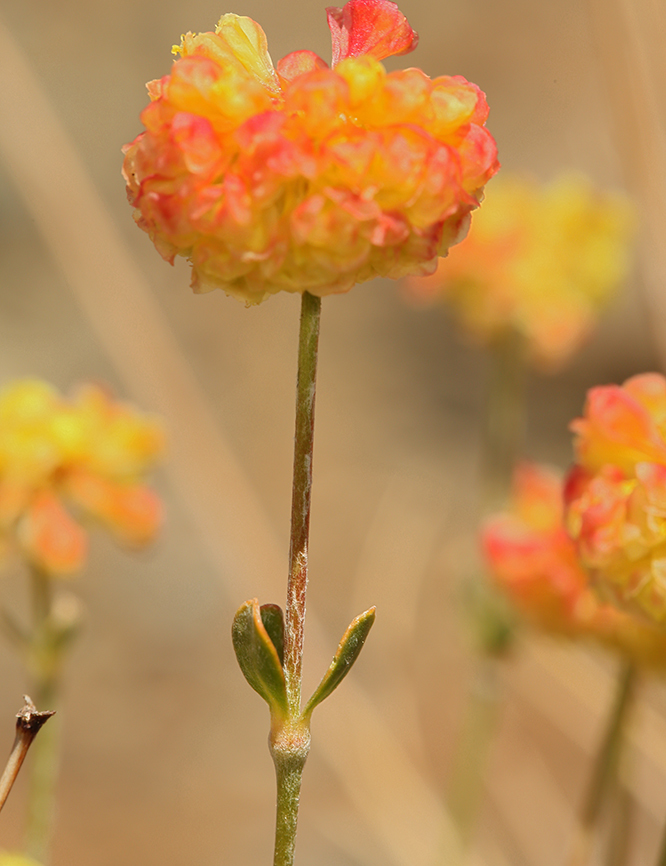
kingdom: Plantae
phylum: Tracheophyta
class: Magnoliopsida
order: Caryophyllales
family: Polygonaceae
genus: Eriogonum
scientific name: Eriogonum siskiyouense
